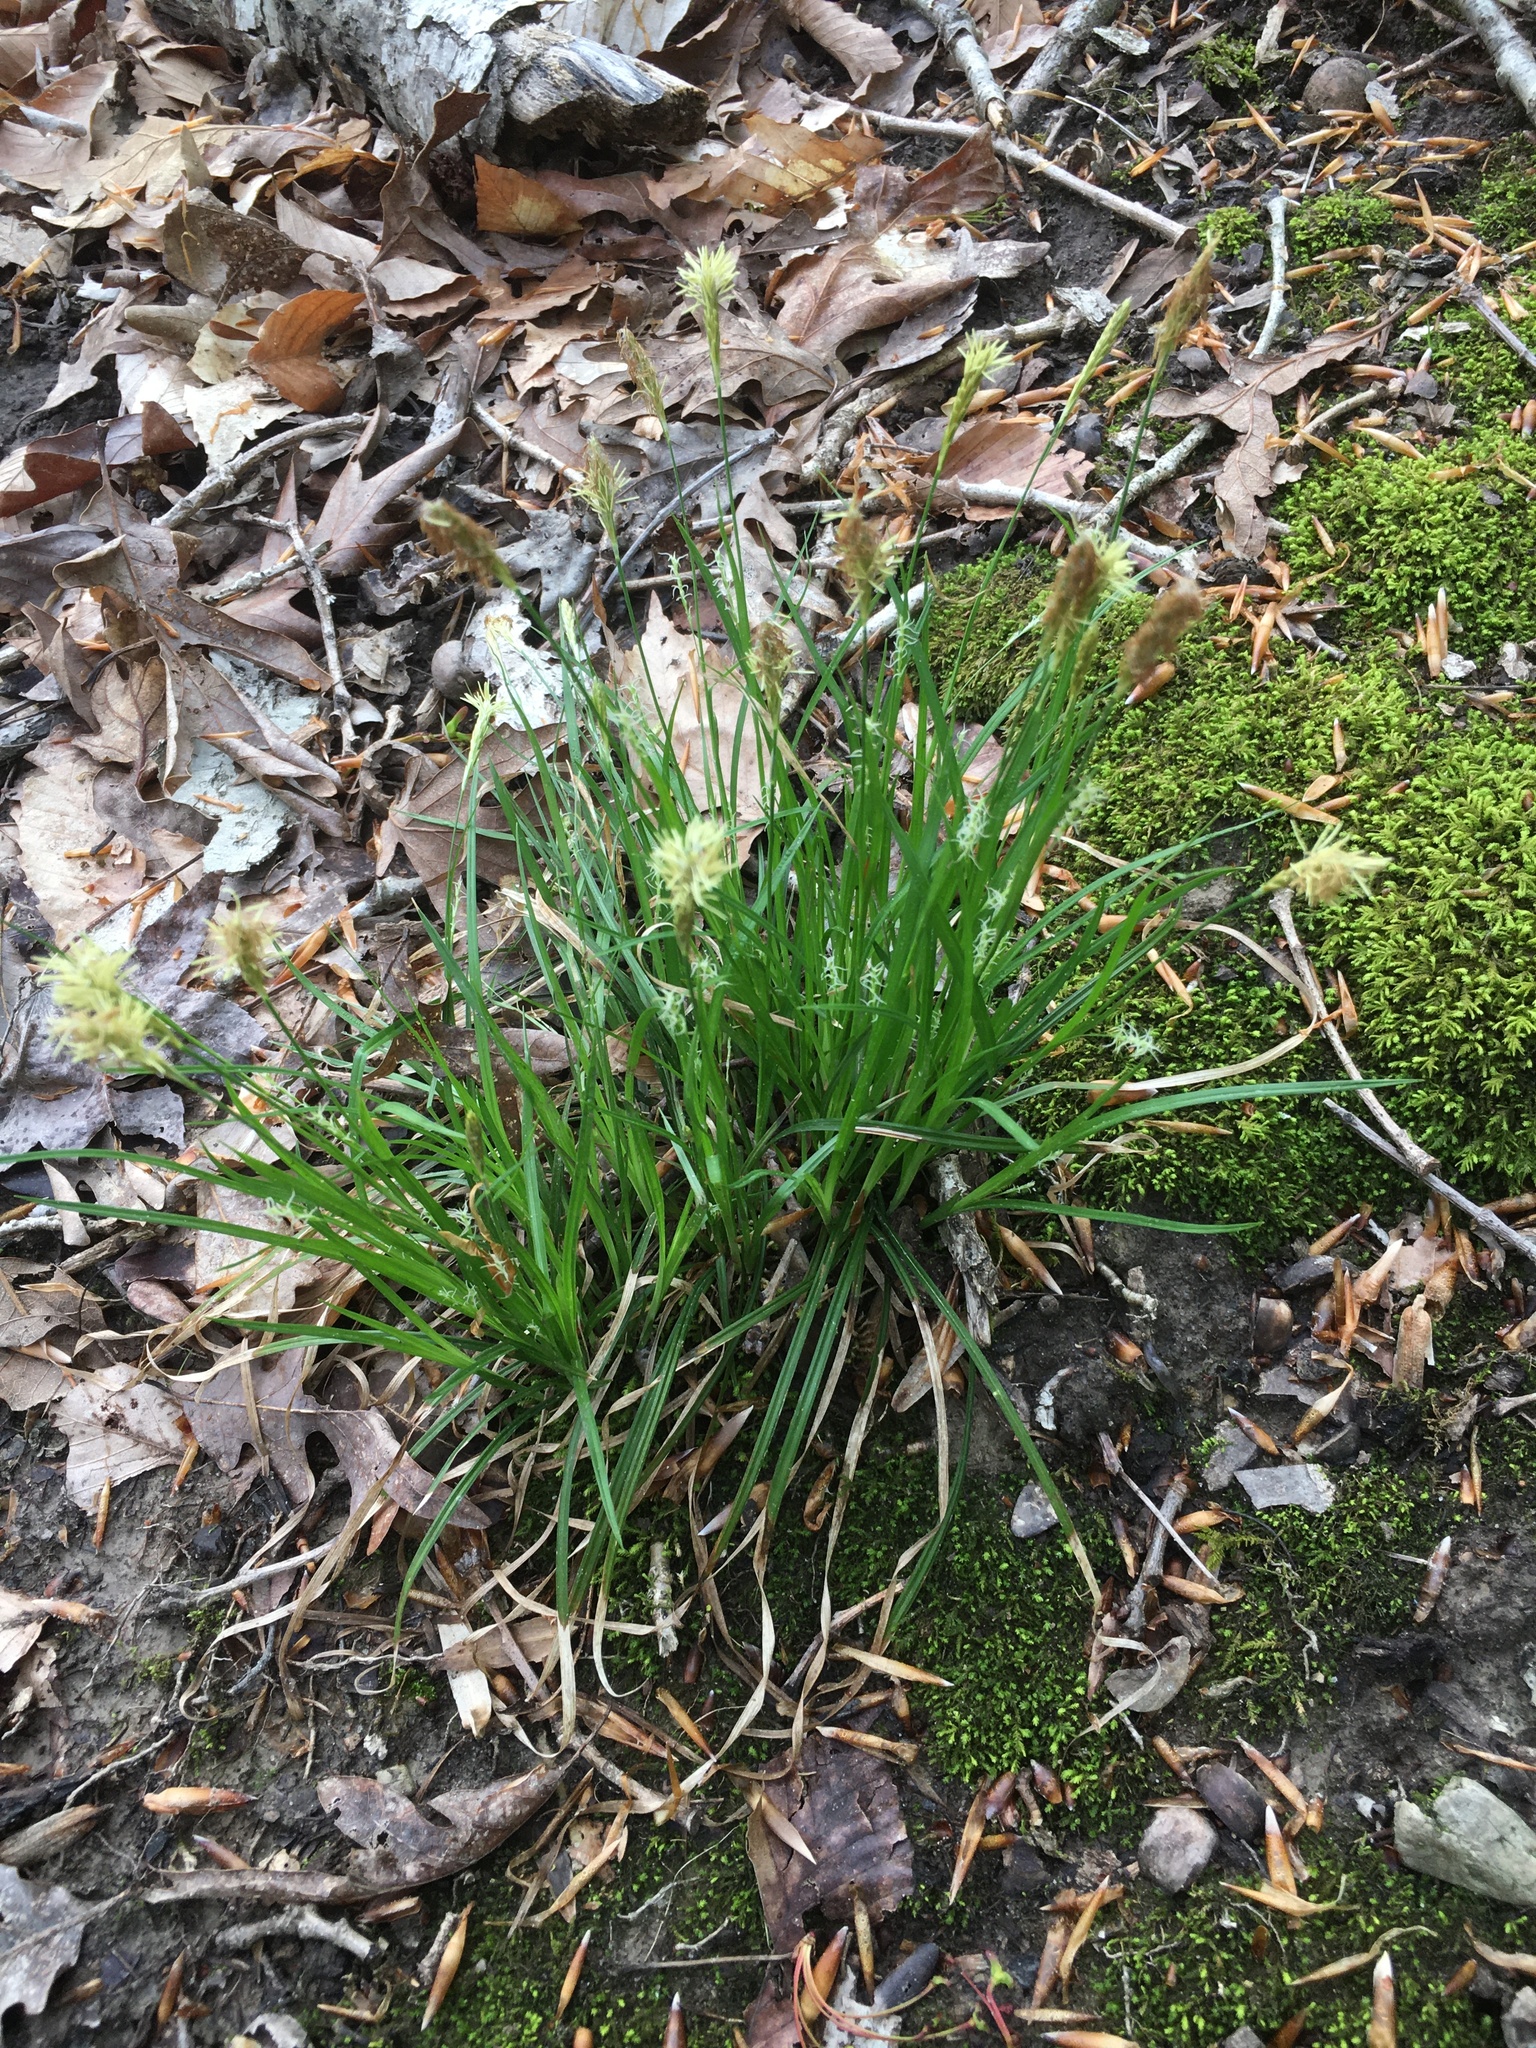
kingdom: Plantae
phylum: Tracheophyta
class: Liliopsida
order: Poales
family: Cyperaceae
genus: Carex
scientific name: Carex pensylvanica
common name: Common oak sedge
